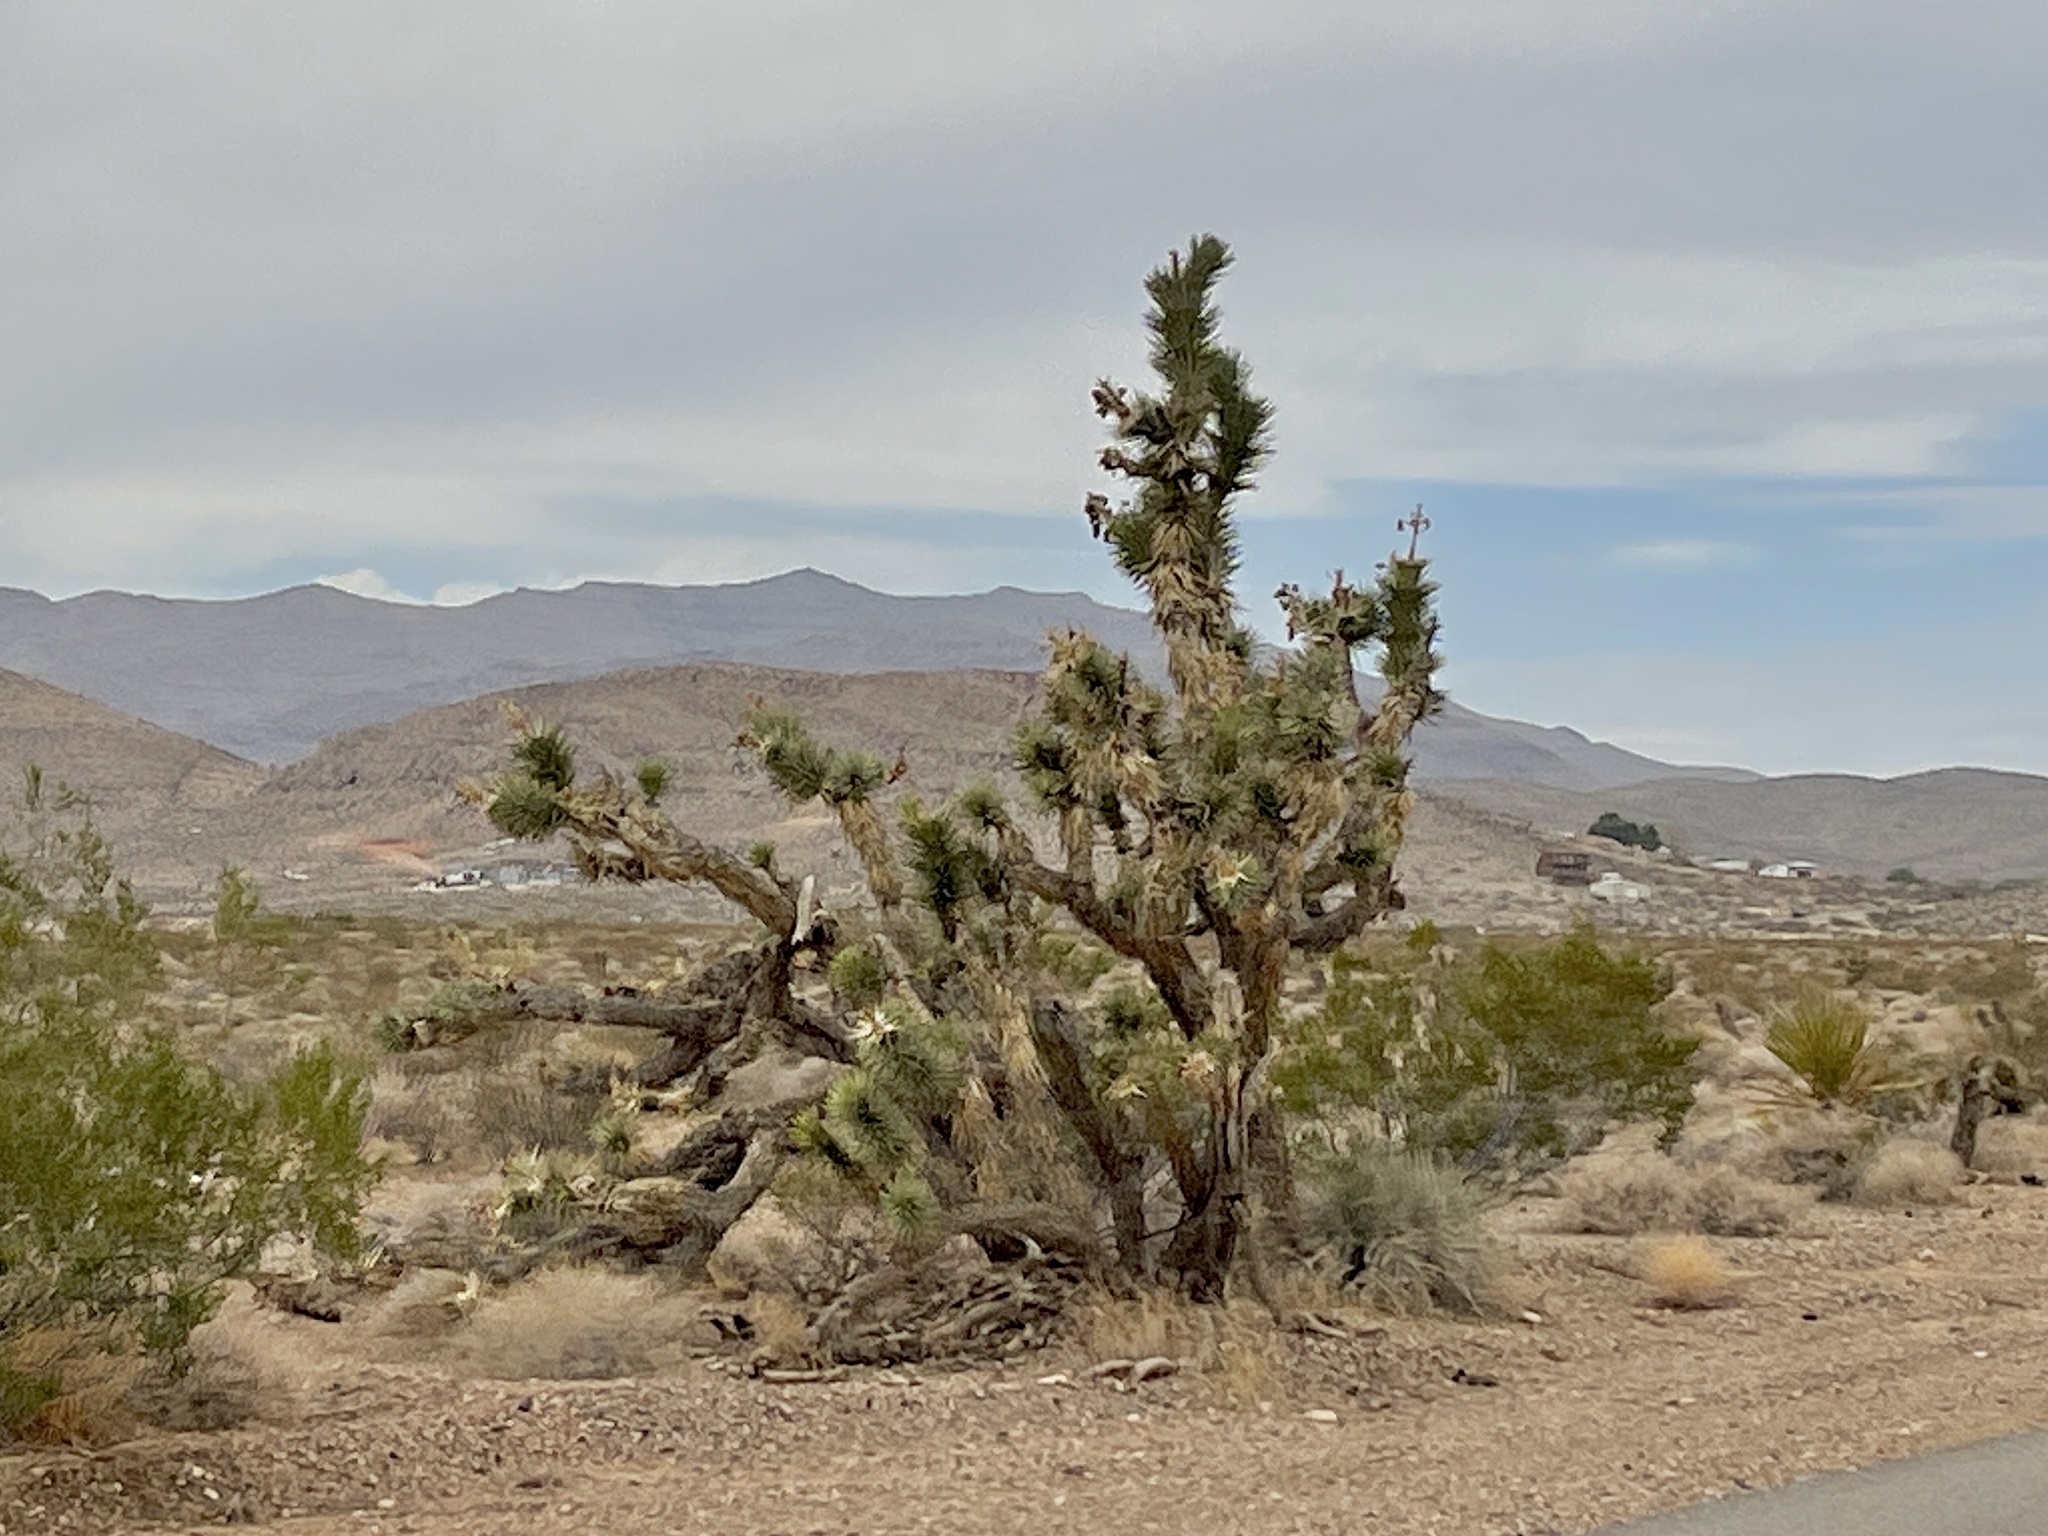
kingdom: Plantae
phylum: Tracheophyta
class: Liliopsida
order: Asparagales
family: Asparagaceae
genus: Yucca
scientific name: Yucca brevifolia
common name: Joshua tree
